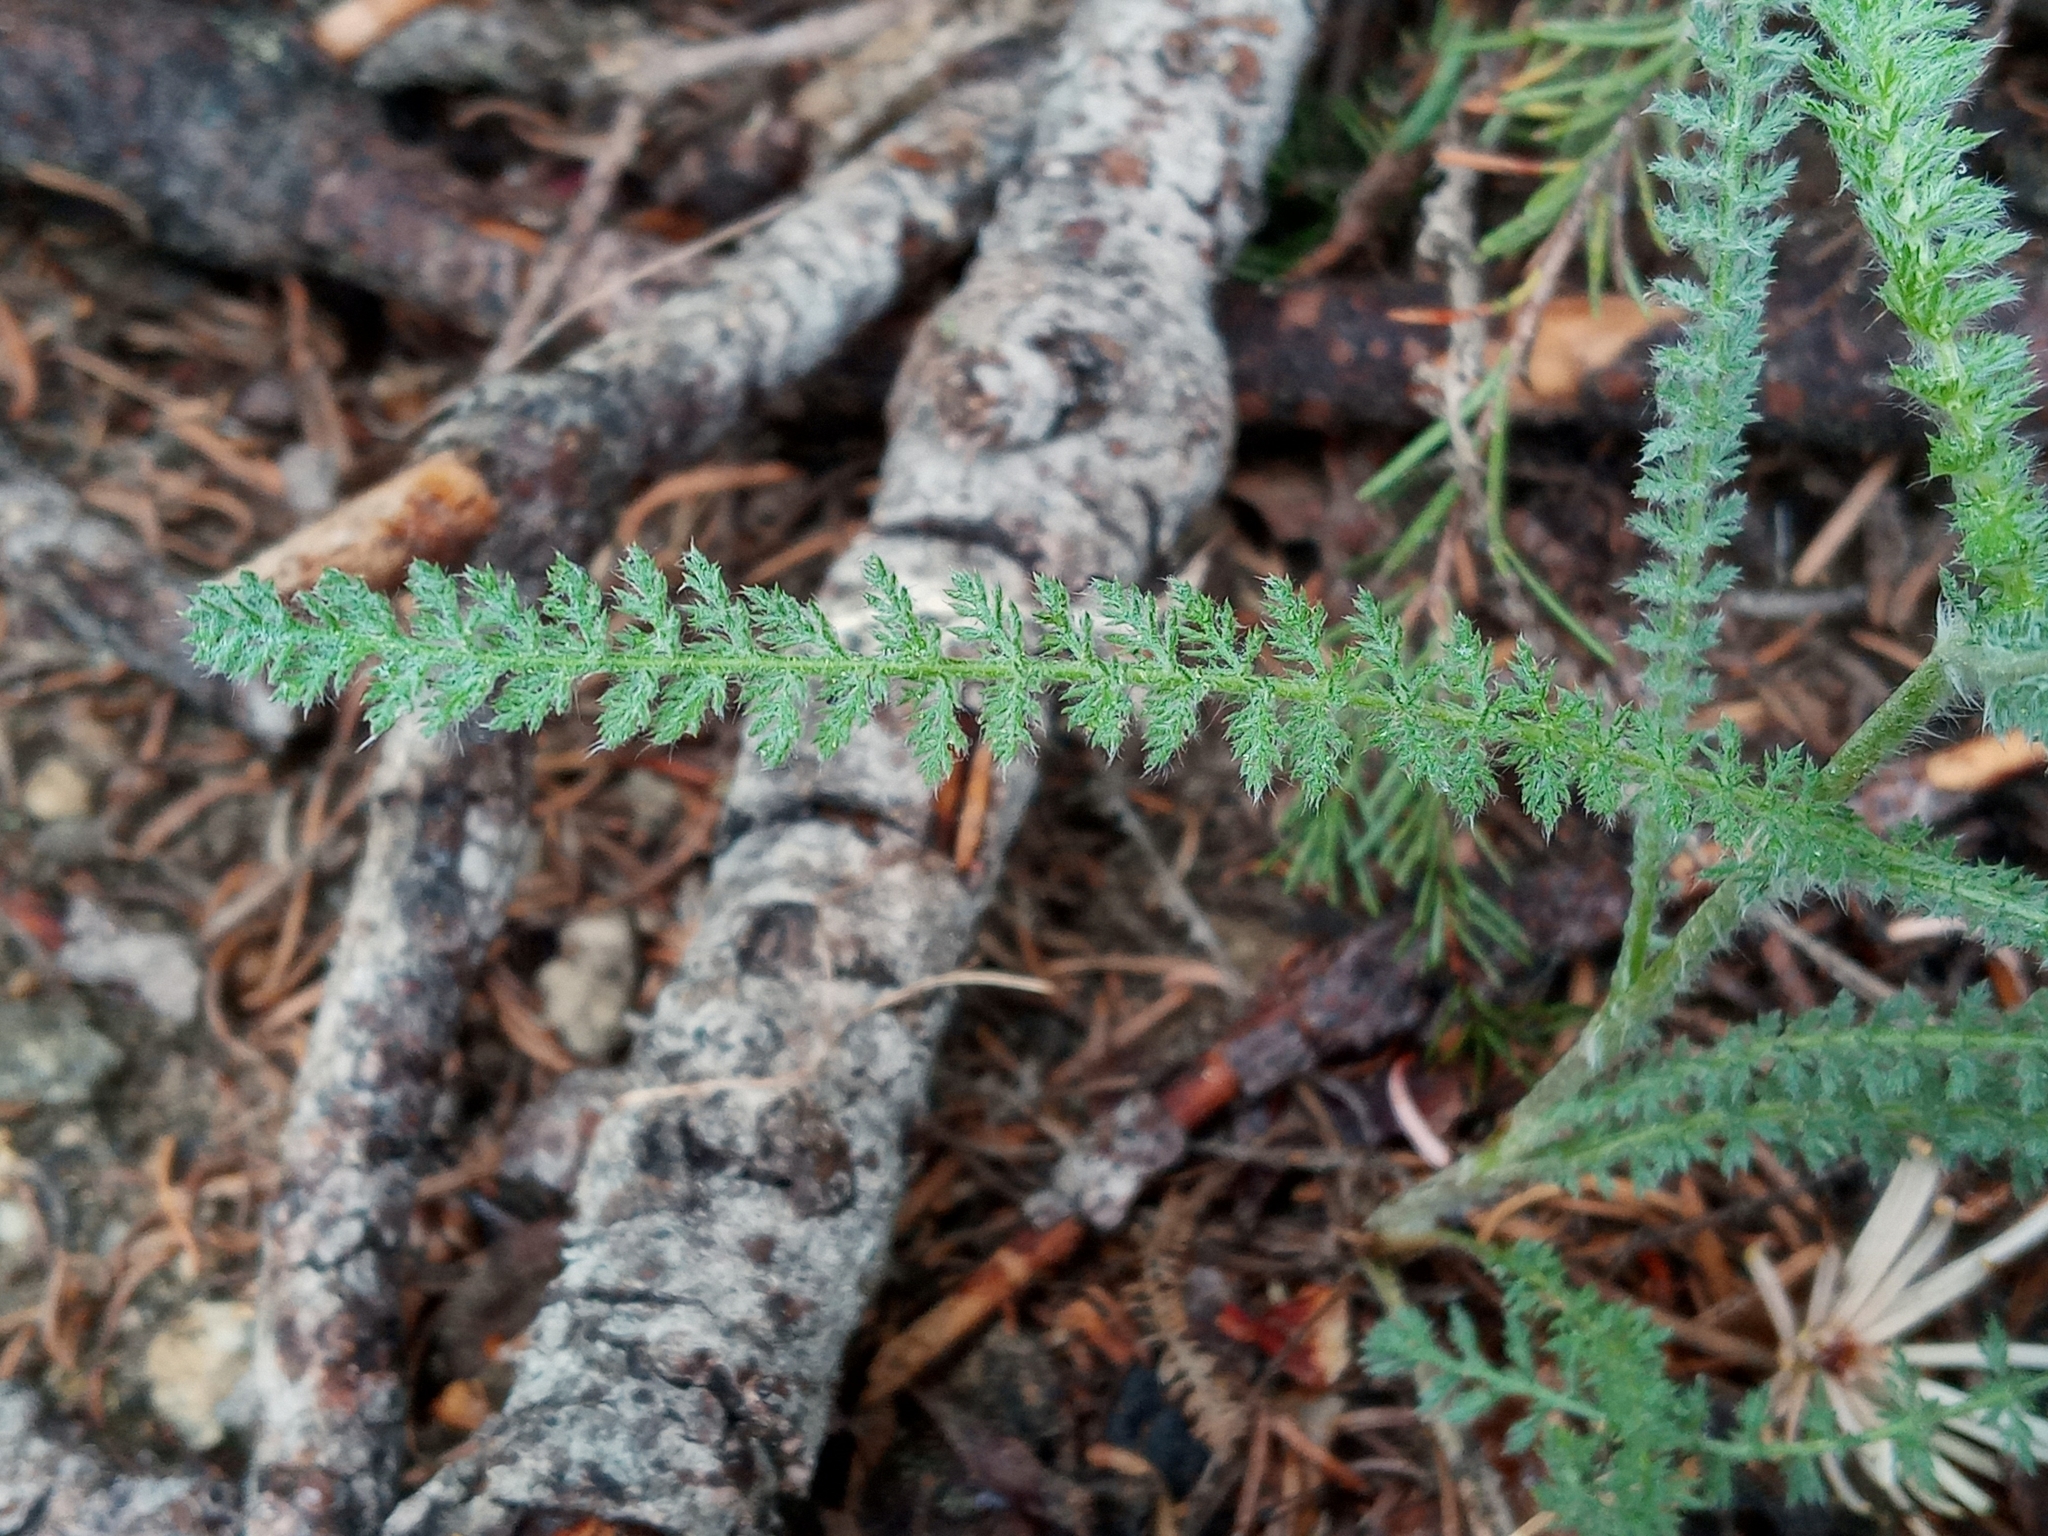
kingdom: Plantae
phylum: Tracheophyta
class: Magnoliopsida
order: Asterales
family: Asteraceae
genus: Achillea
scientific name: Achillea millefolium
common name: Yarrow
